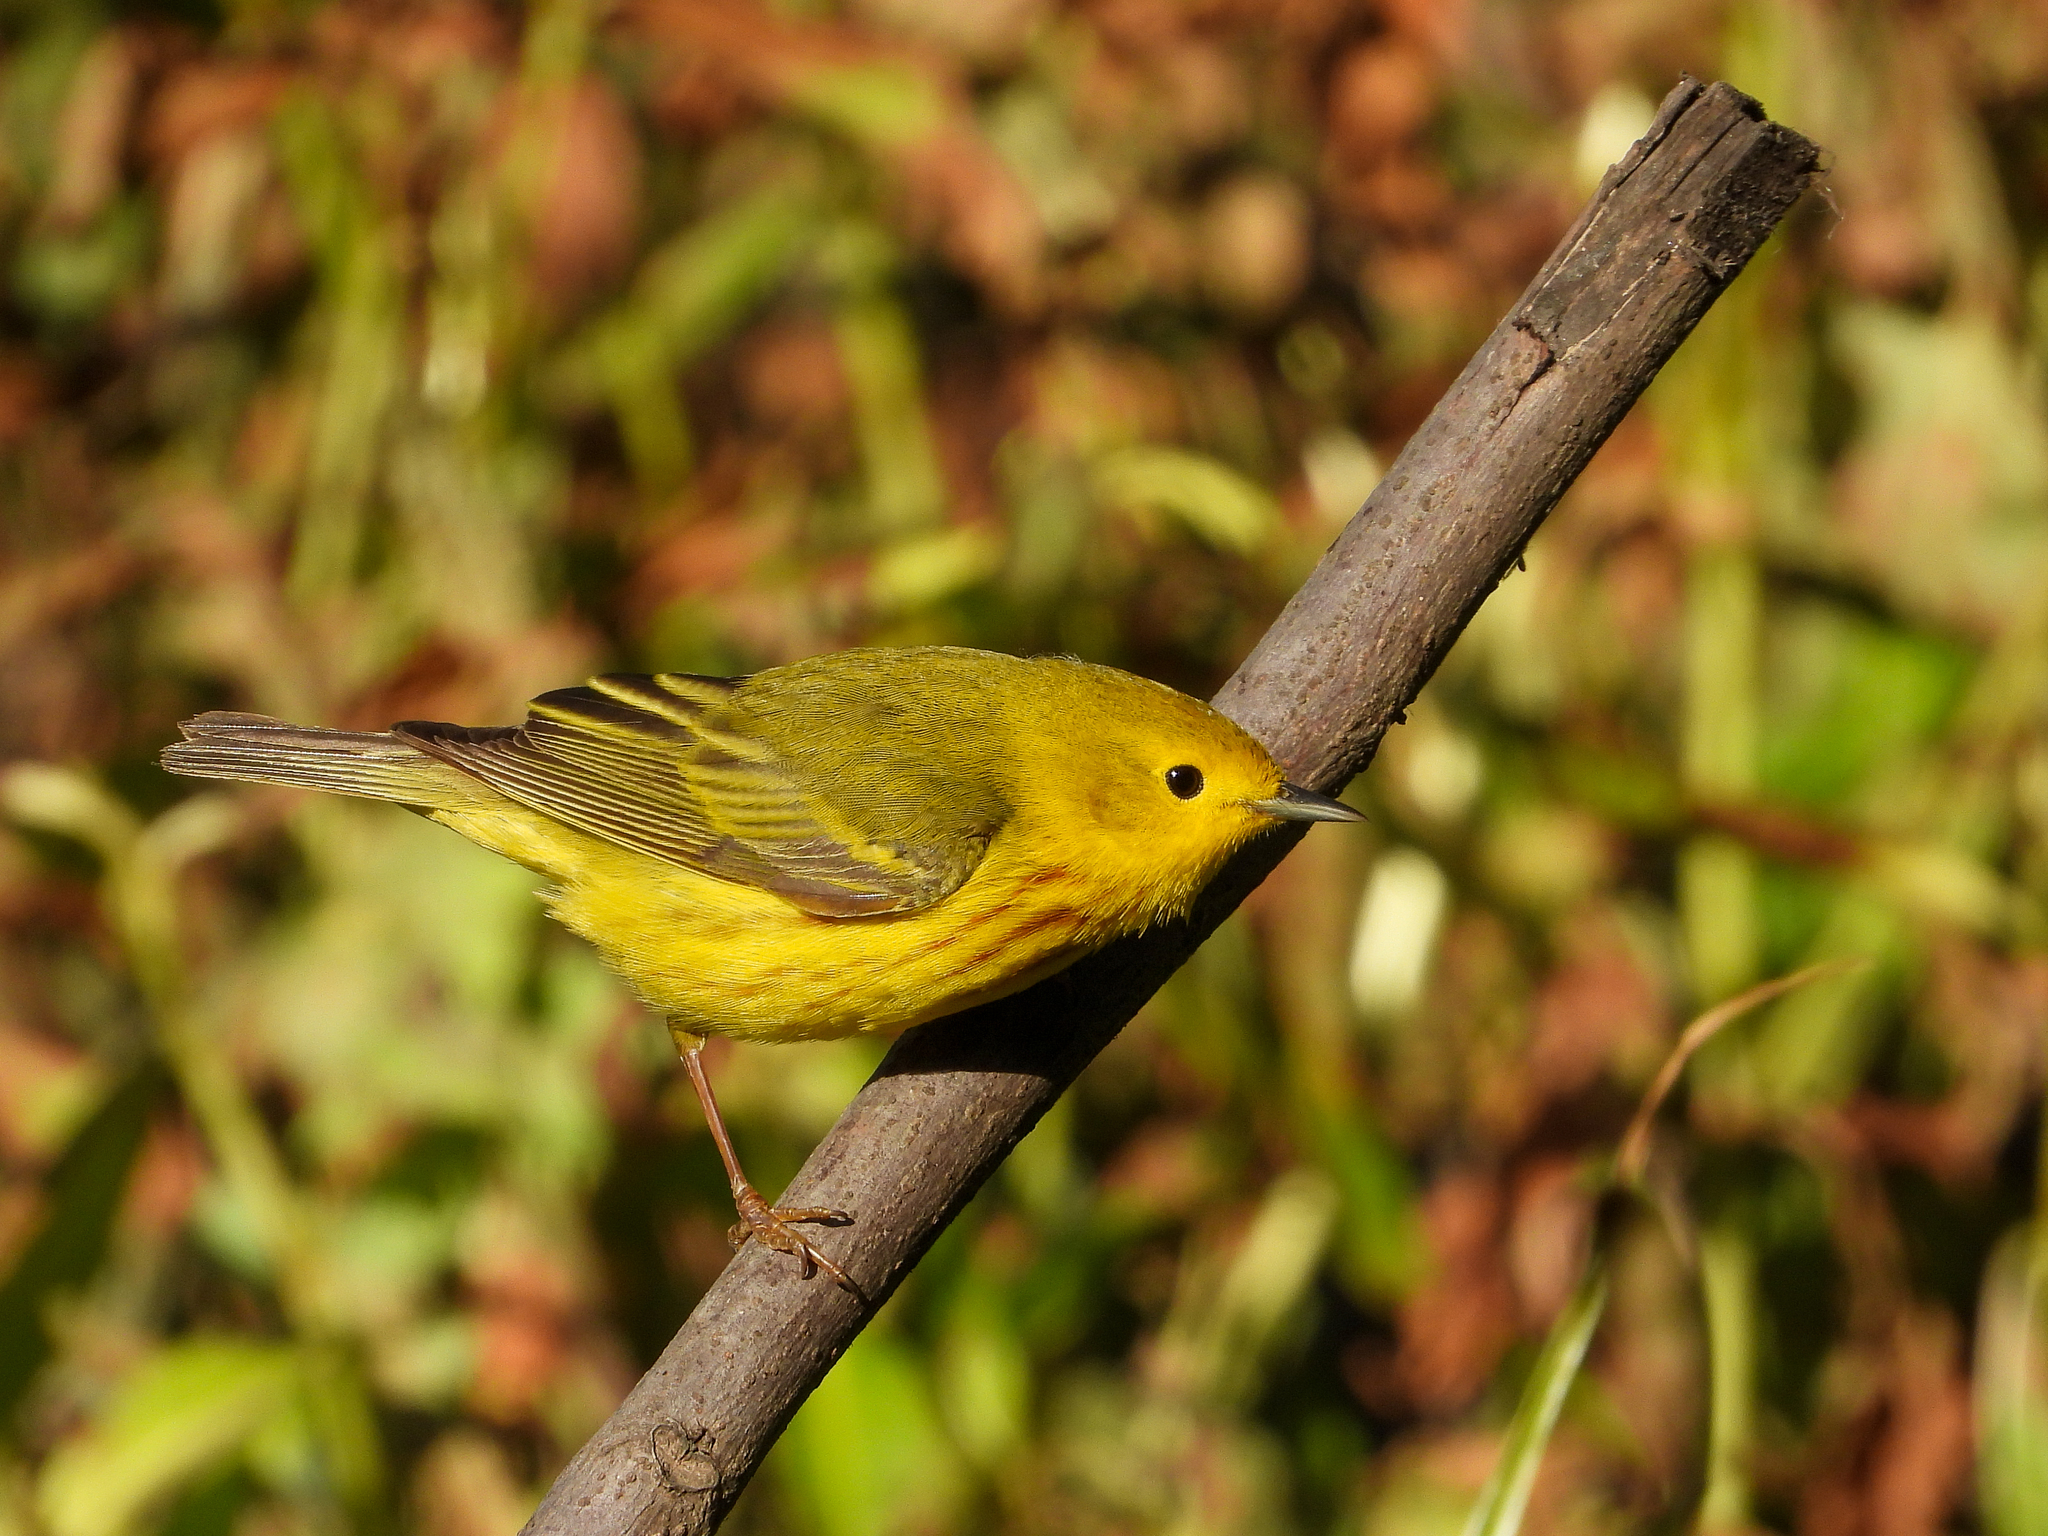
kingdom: Animalia
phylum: Chordata
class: Aves
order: Passeriformes
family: Parulidae
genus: Setophaga
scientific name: Setophaga petechia
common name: Yellow warbler
